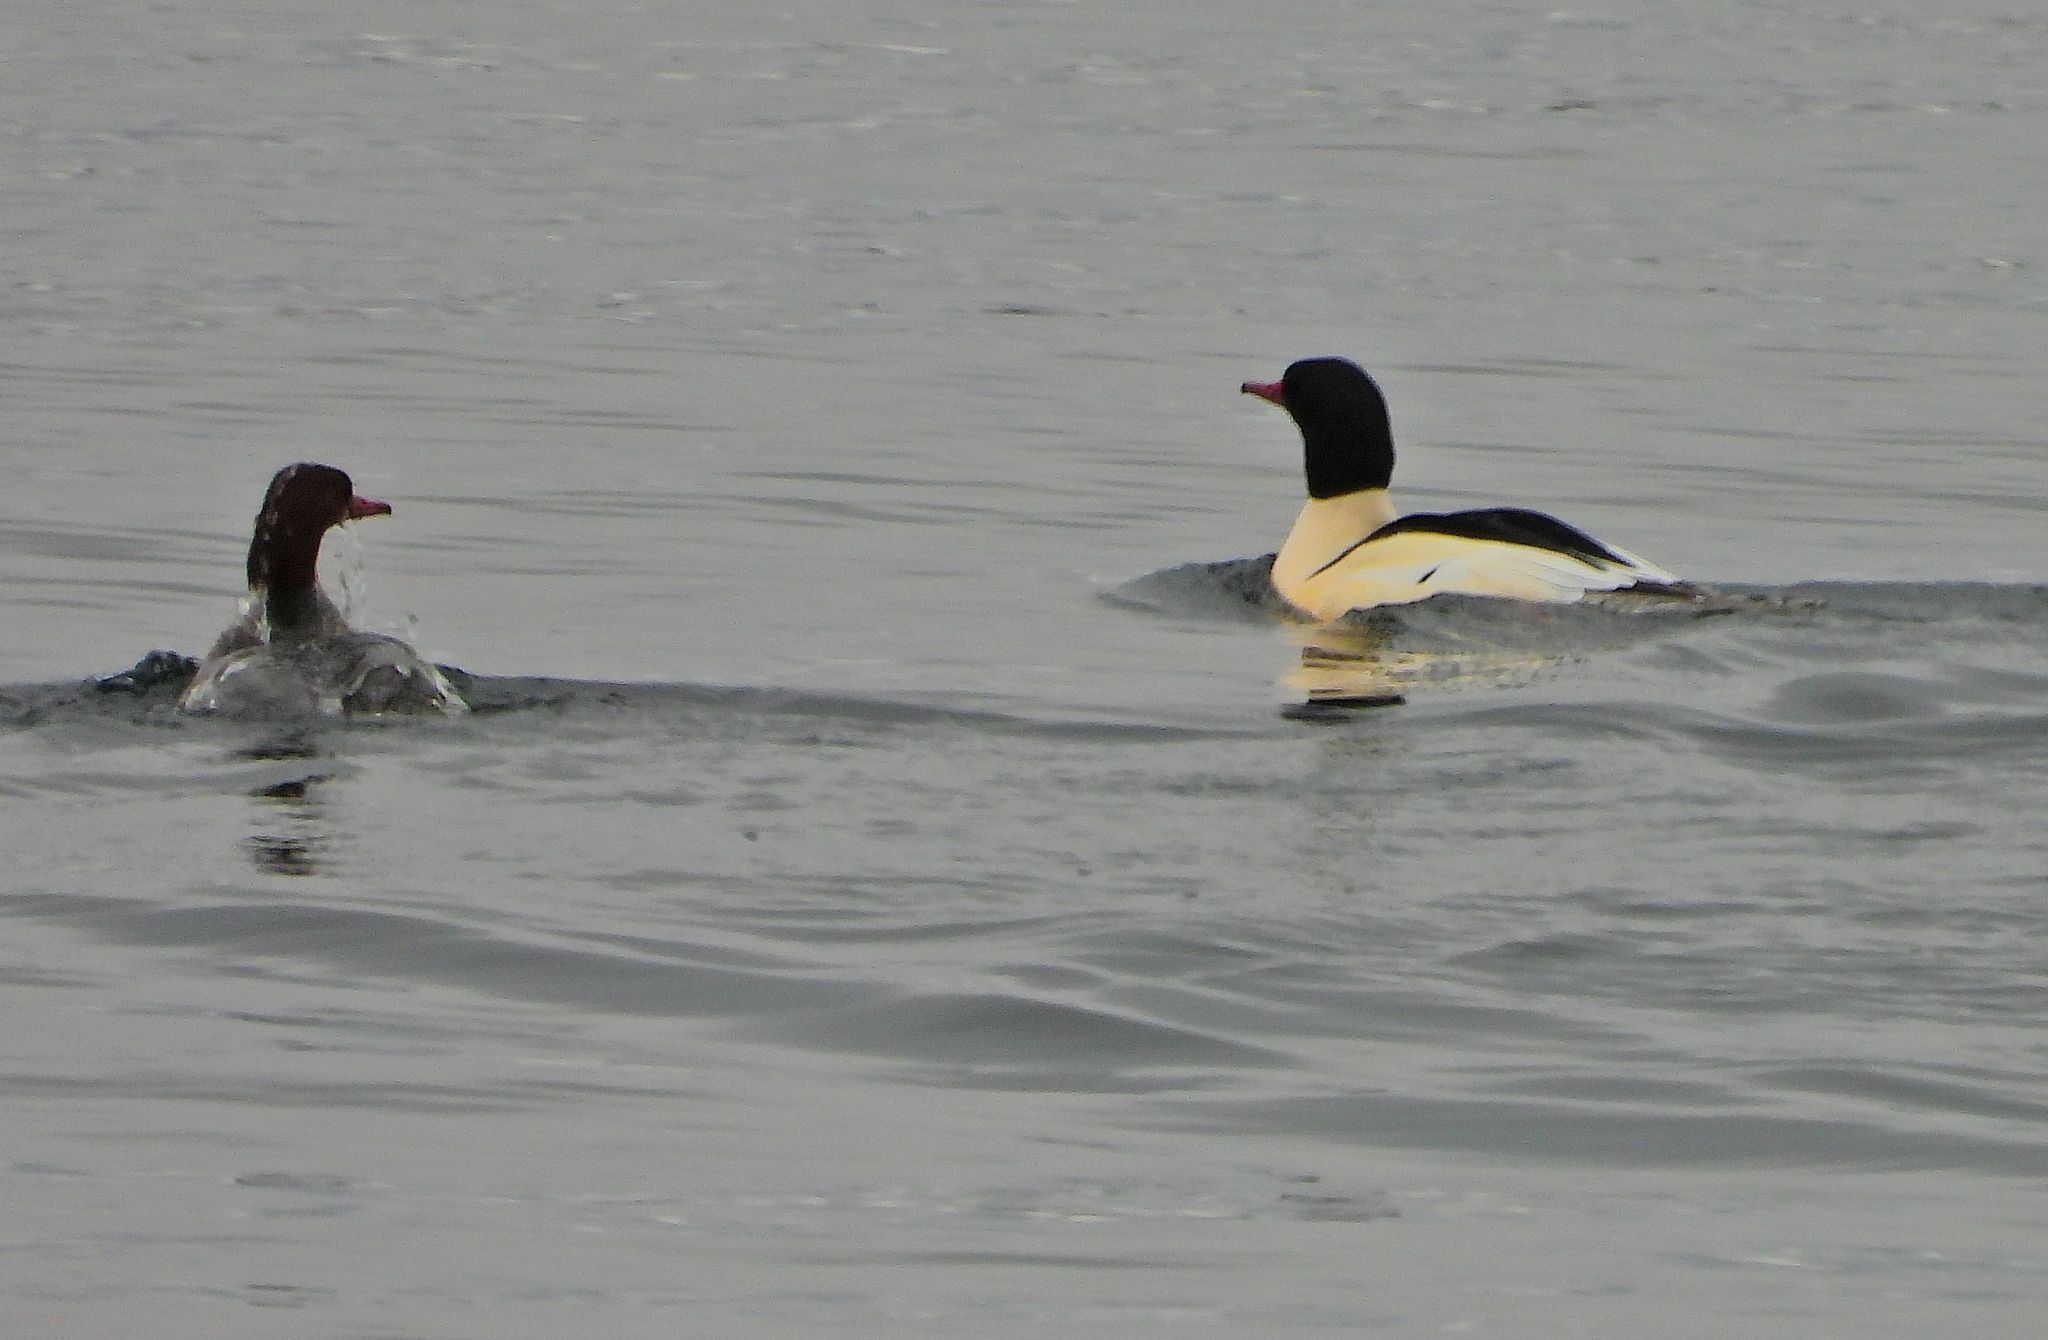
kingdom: Animalia
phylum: Chordata
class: Aves
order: Anseriformes
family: Anatidae
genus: Mergus
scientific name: Mergus merganser
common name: Common merganser
